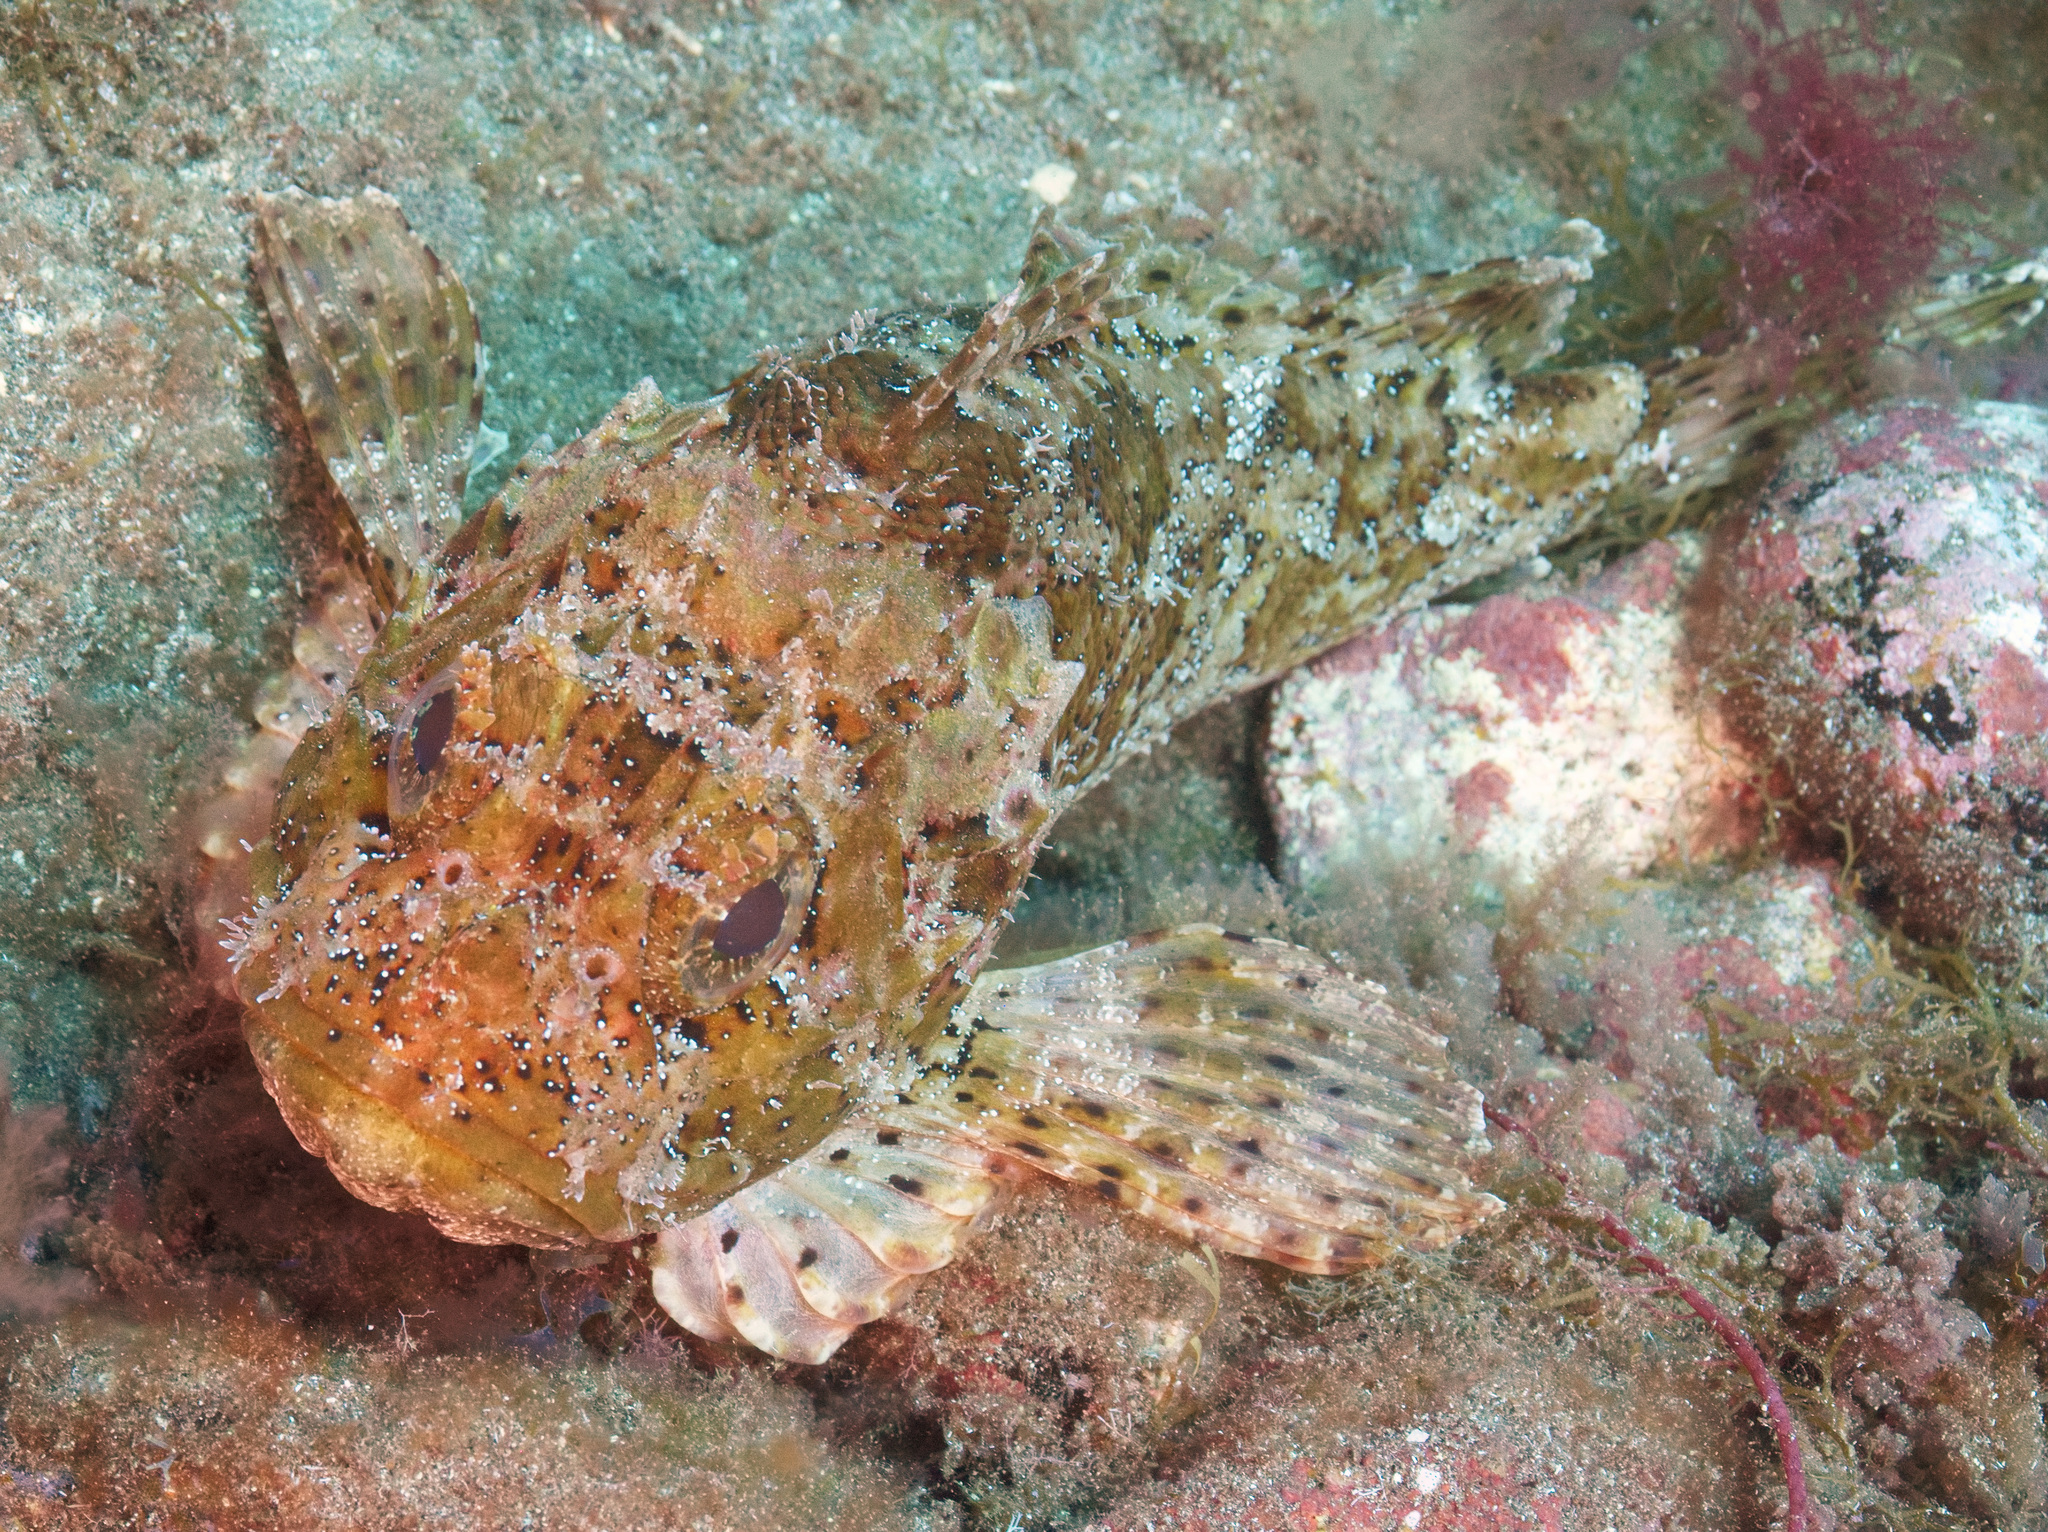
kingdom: Animalia
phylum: Chordata
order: Scorpaeniformes
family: Scorpaenidae
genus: Scorpaena
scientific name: Scorpaena porcus
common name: Black scorpionfish
